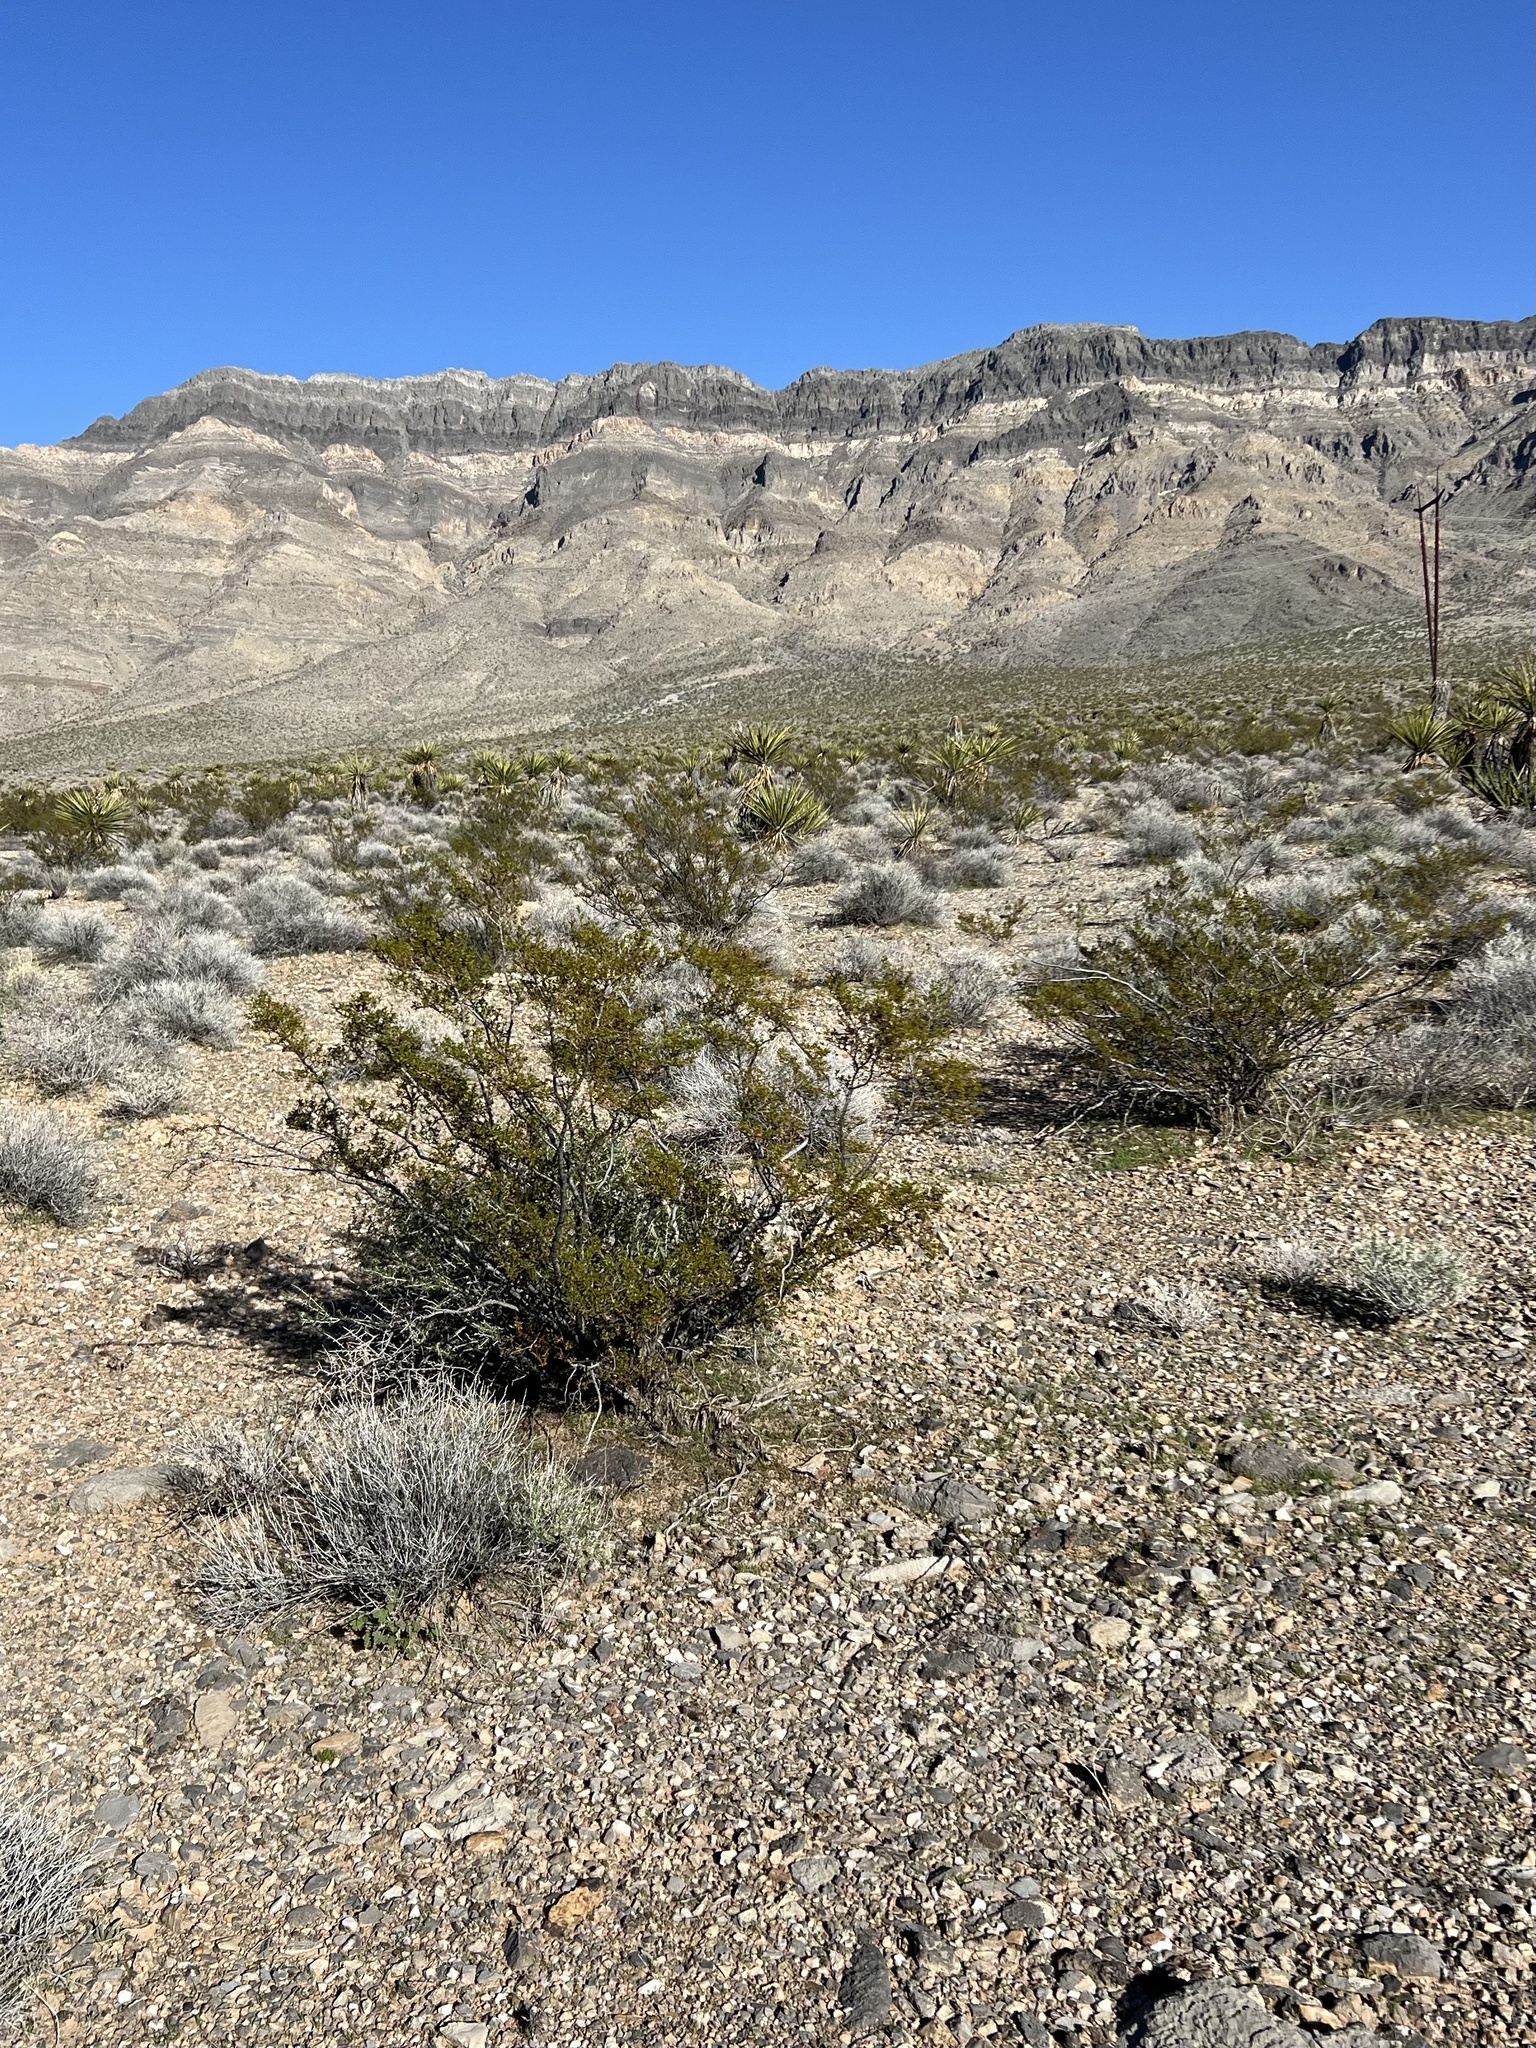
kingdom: Plantae
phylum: Tracheophyta
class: Magnoliopsida
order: Zygophyllales
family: Zygophyllaceae
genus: Larrea
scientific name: Larrea tridentata
